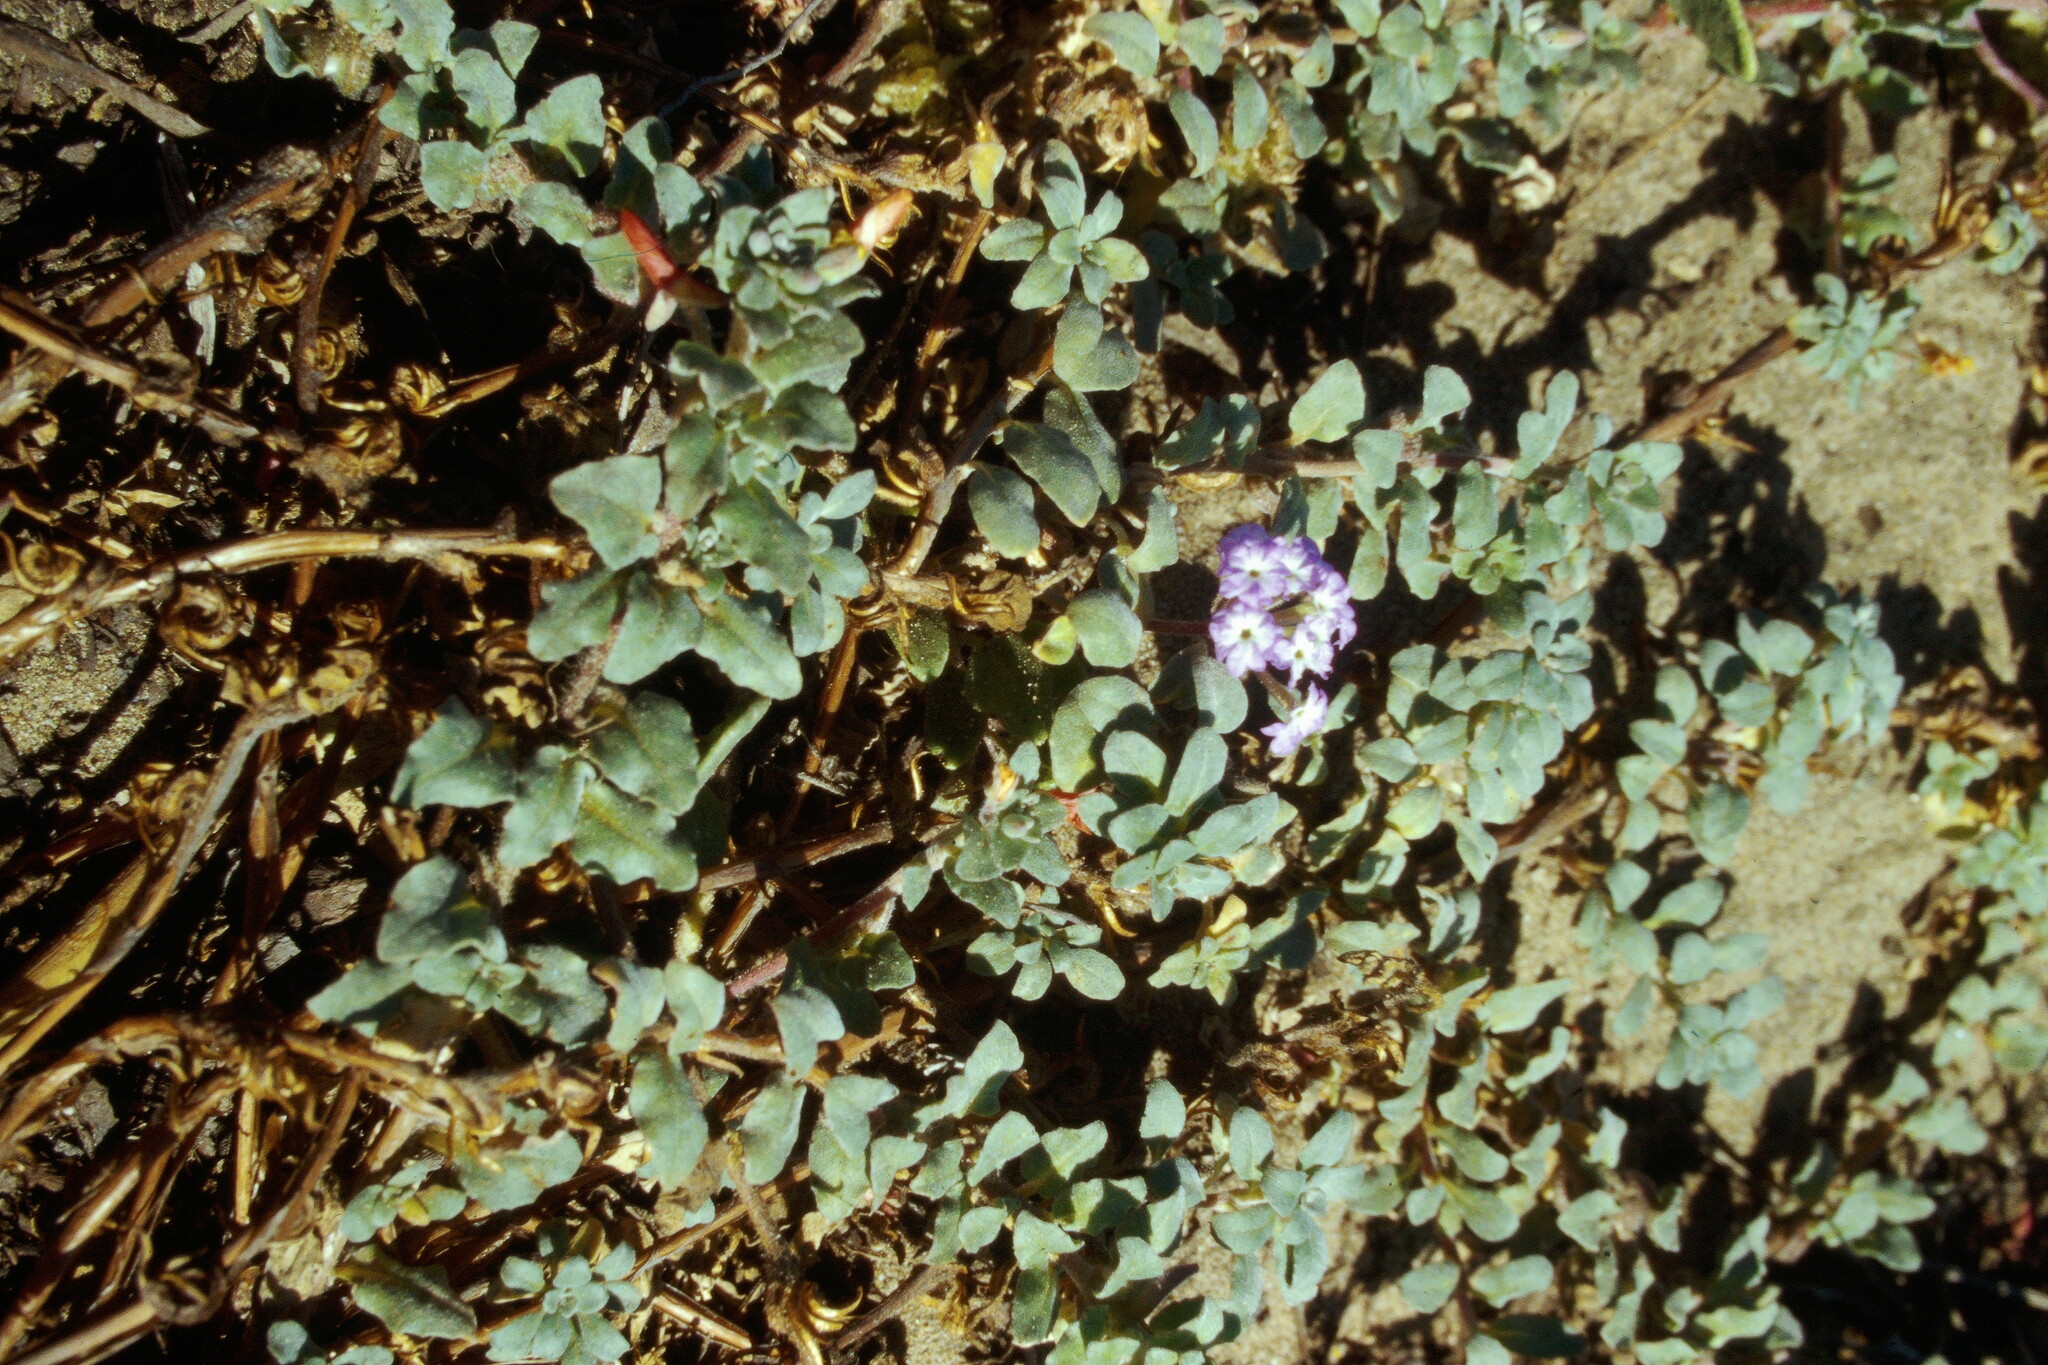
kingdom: Plantae
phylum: Tracheophyta
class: Magnoliopsida
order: Caryophyllales
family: Nyctaginaceae
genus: Abronia
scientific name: Abronia umbellata
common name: Sand-verbena
